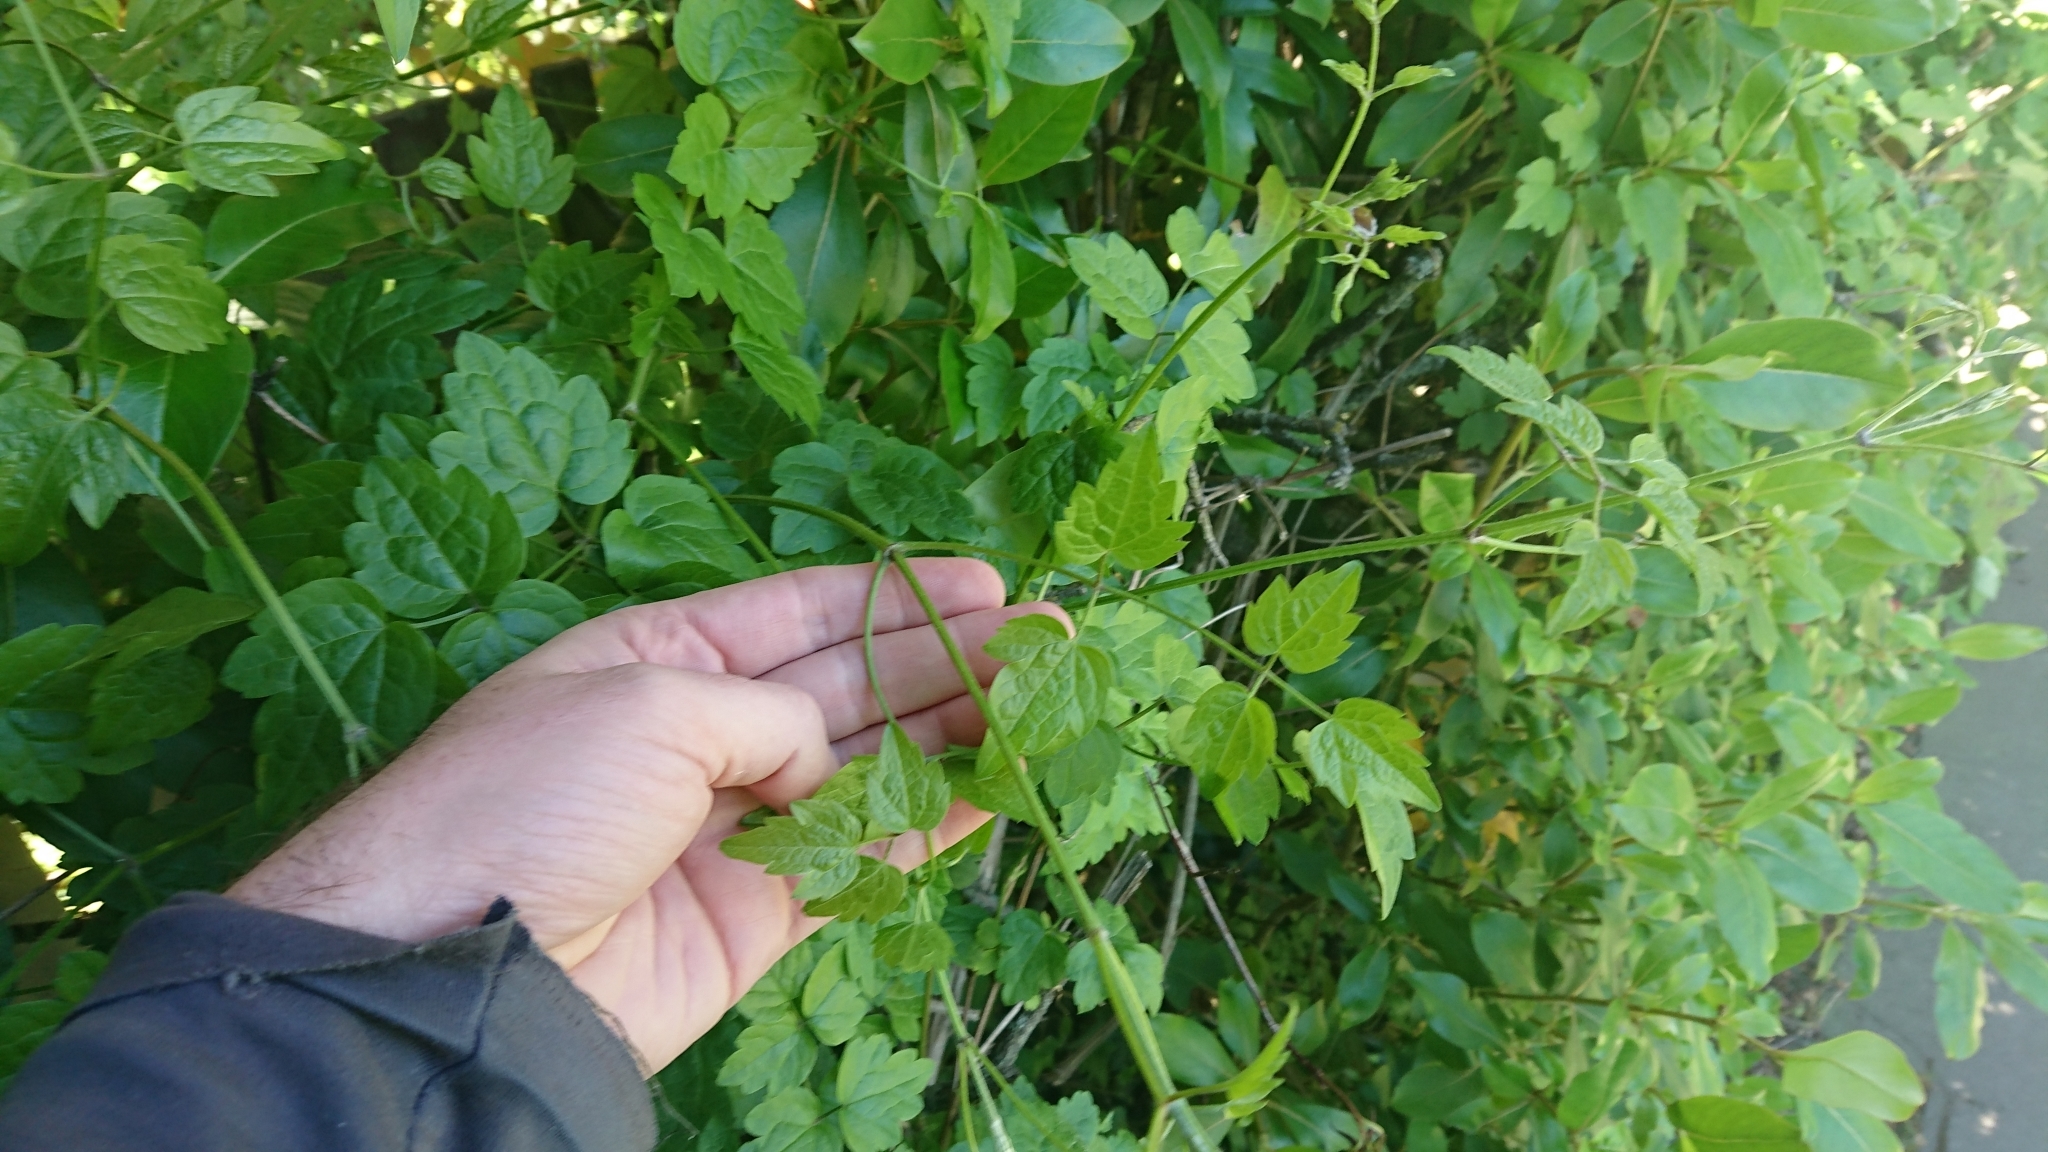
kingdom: Plantae
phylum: Tracheophyta
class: Magnoliopsida
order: Ranunculales
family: Ranunculaceae
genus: Clematis
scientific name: Clematis vitalba
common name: Evergreen clematis
